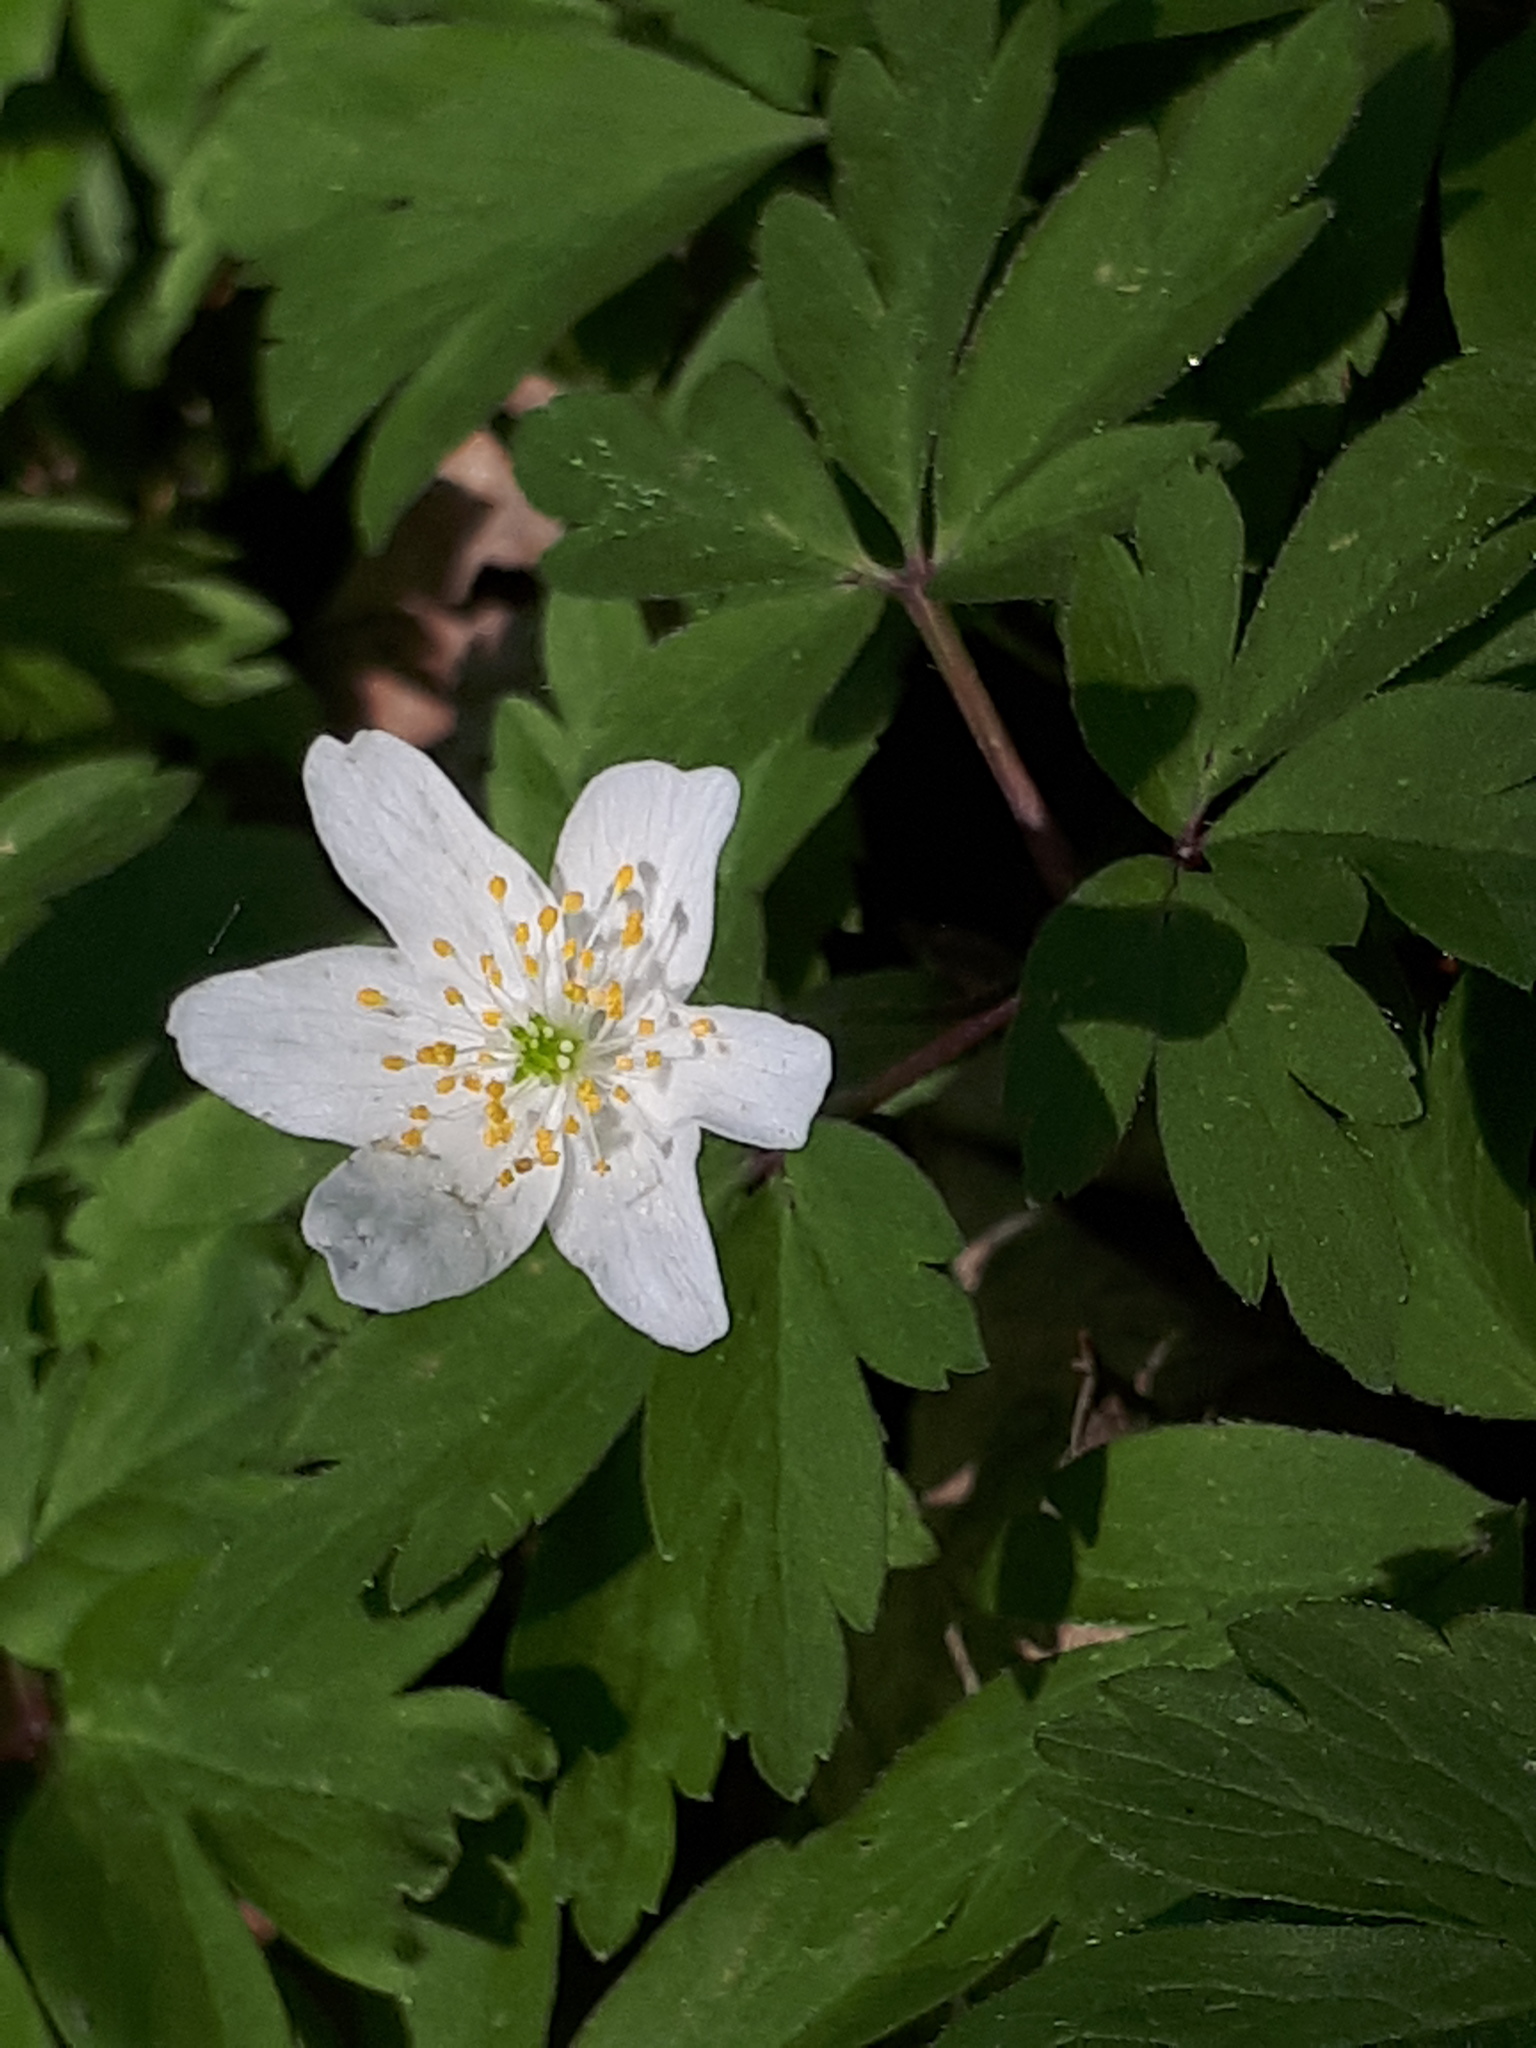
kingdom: Plantae
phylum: Tracheophyta
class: Magnoliopsida
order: Ranunculales
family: Ranunculaceae
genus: Anemone
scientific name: Anemone nemorosa
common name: Wood anemone
